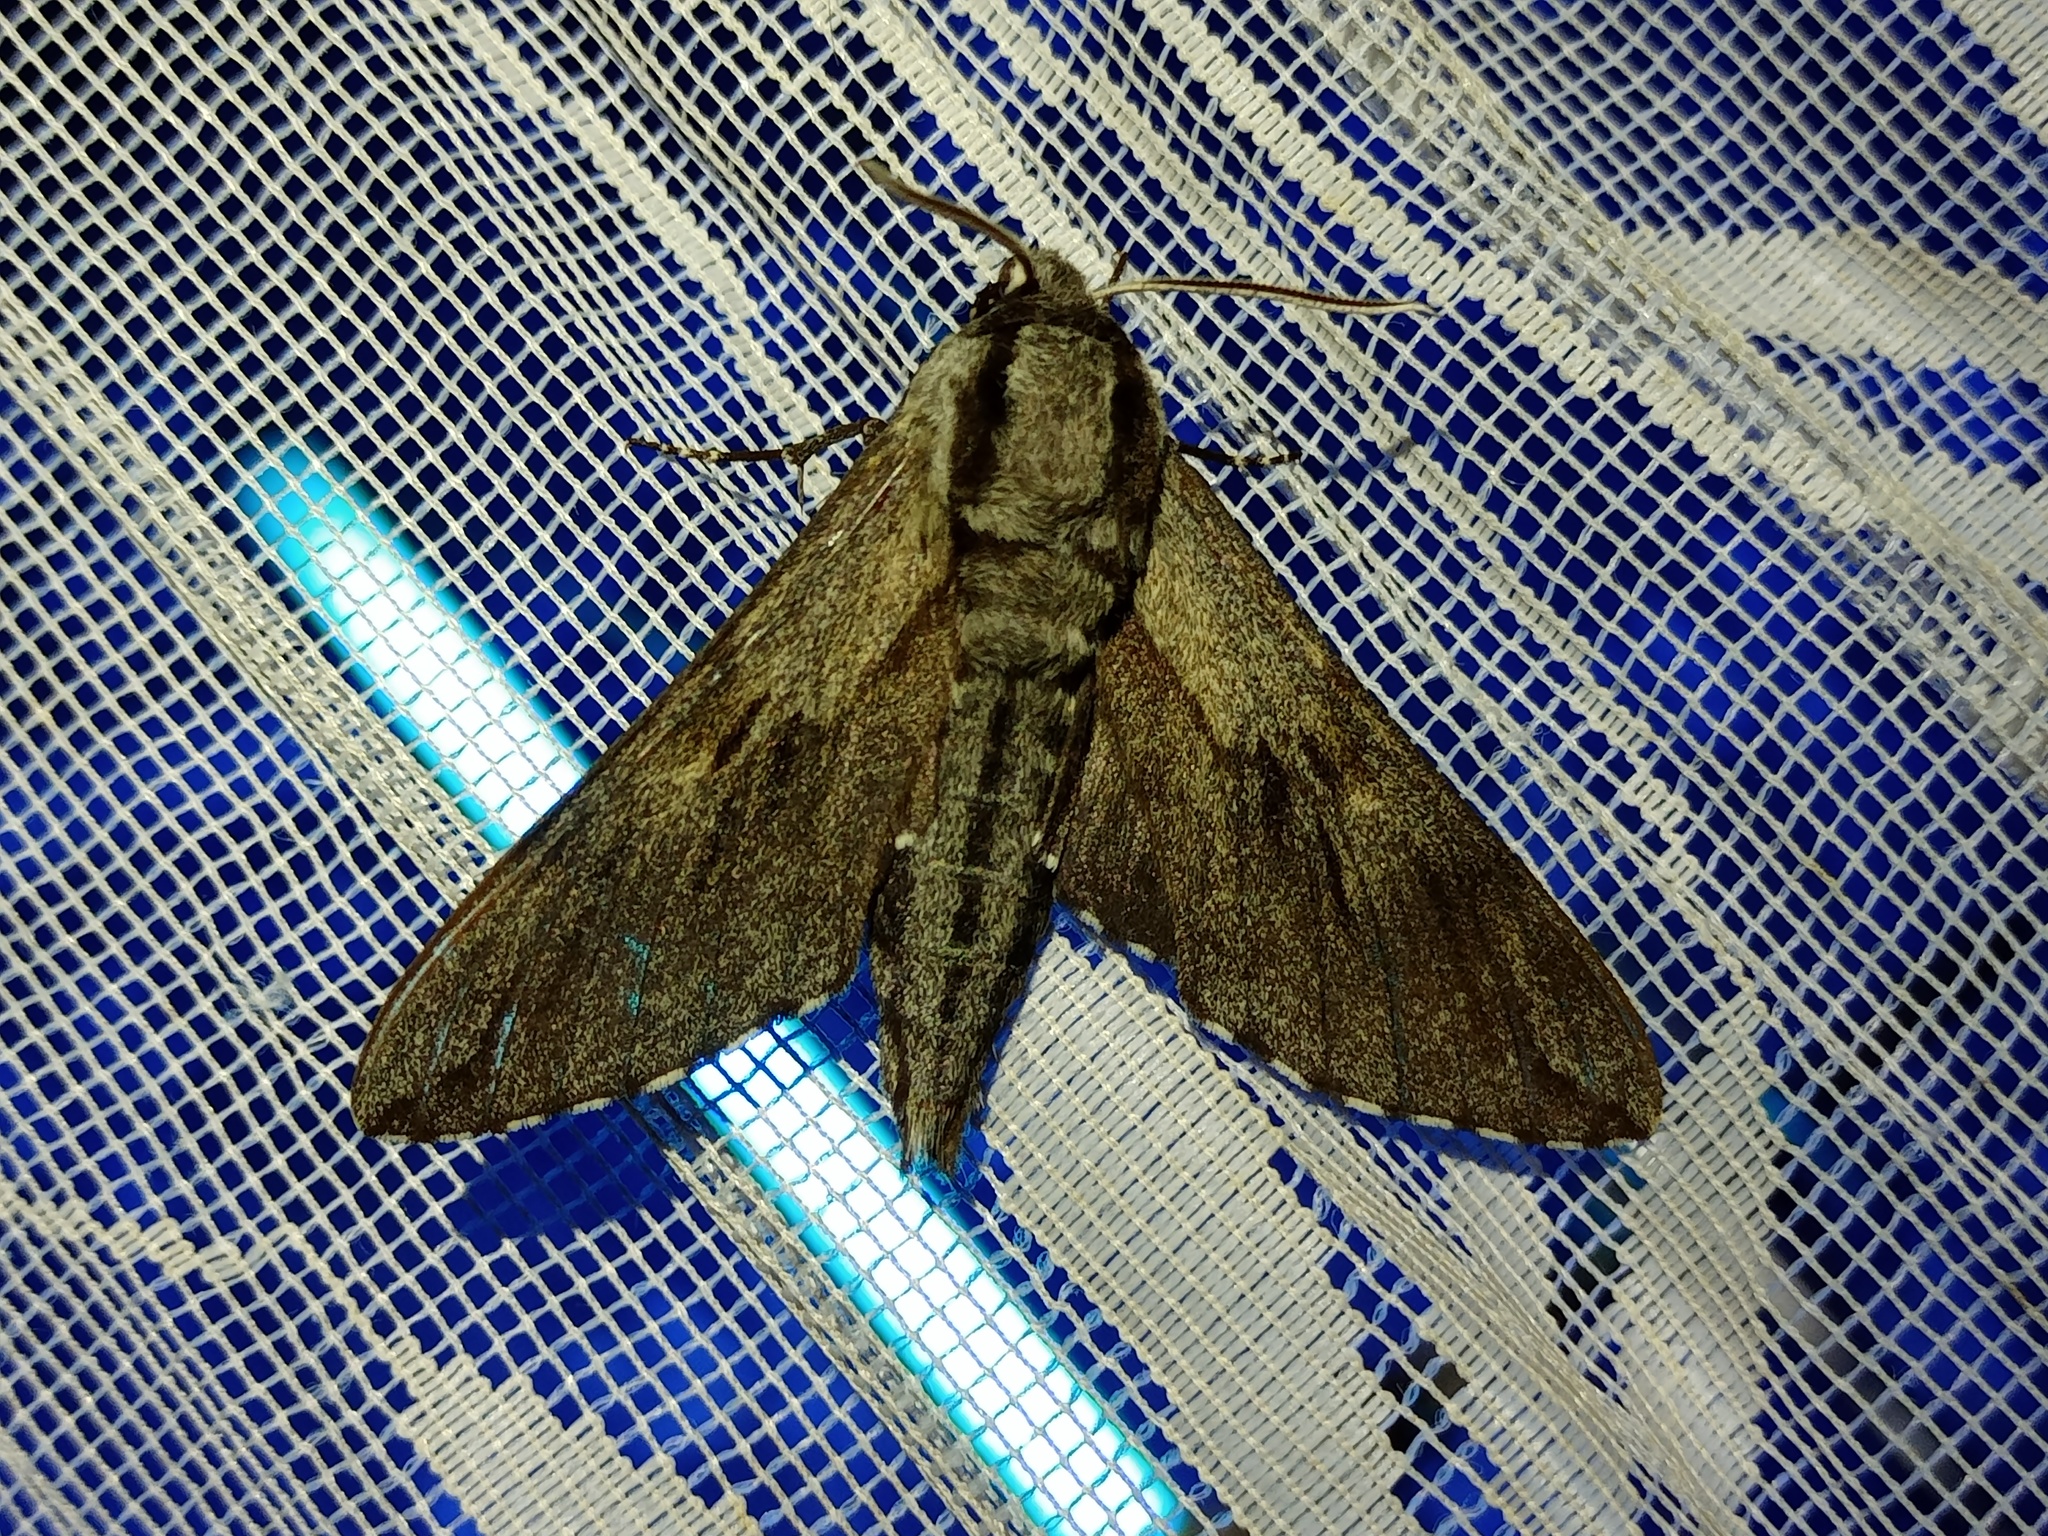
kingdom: Animalia
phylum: Arthropoda
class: Insecta
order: Lepidoptera
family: Sphingidae
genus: Sphinx
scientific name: Sphinx pinastri
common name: Pine hawk-moth
